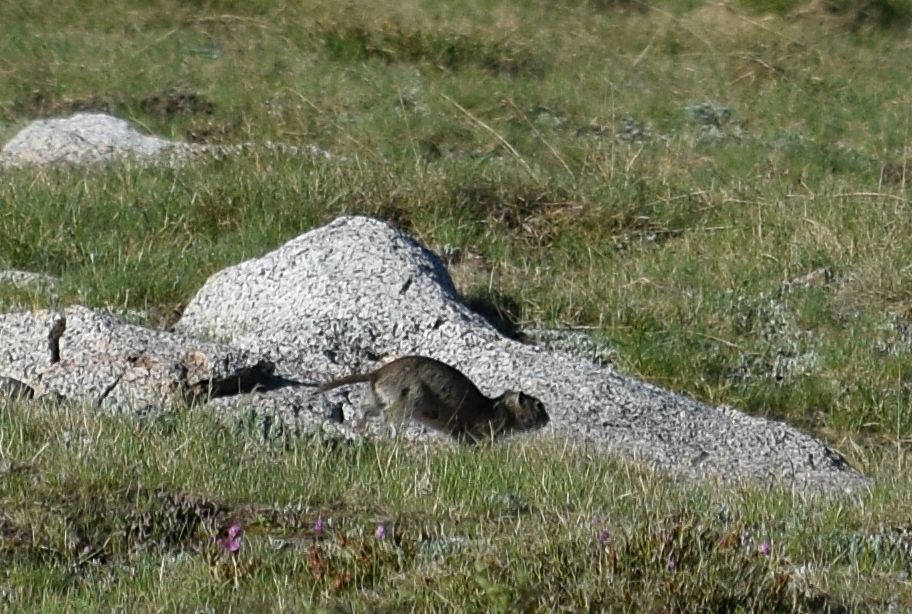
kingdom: Animalia
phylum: Chordata
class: Mammalia
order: Rodentia
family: Sciuridae
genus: Urocitellus
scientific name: Urocitellus beldingi
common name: Belding's ground squirrel
